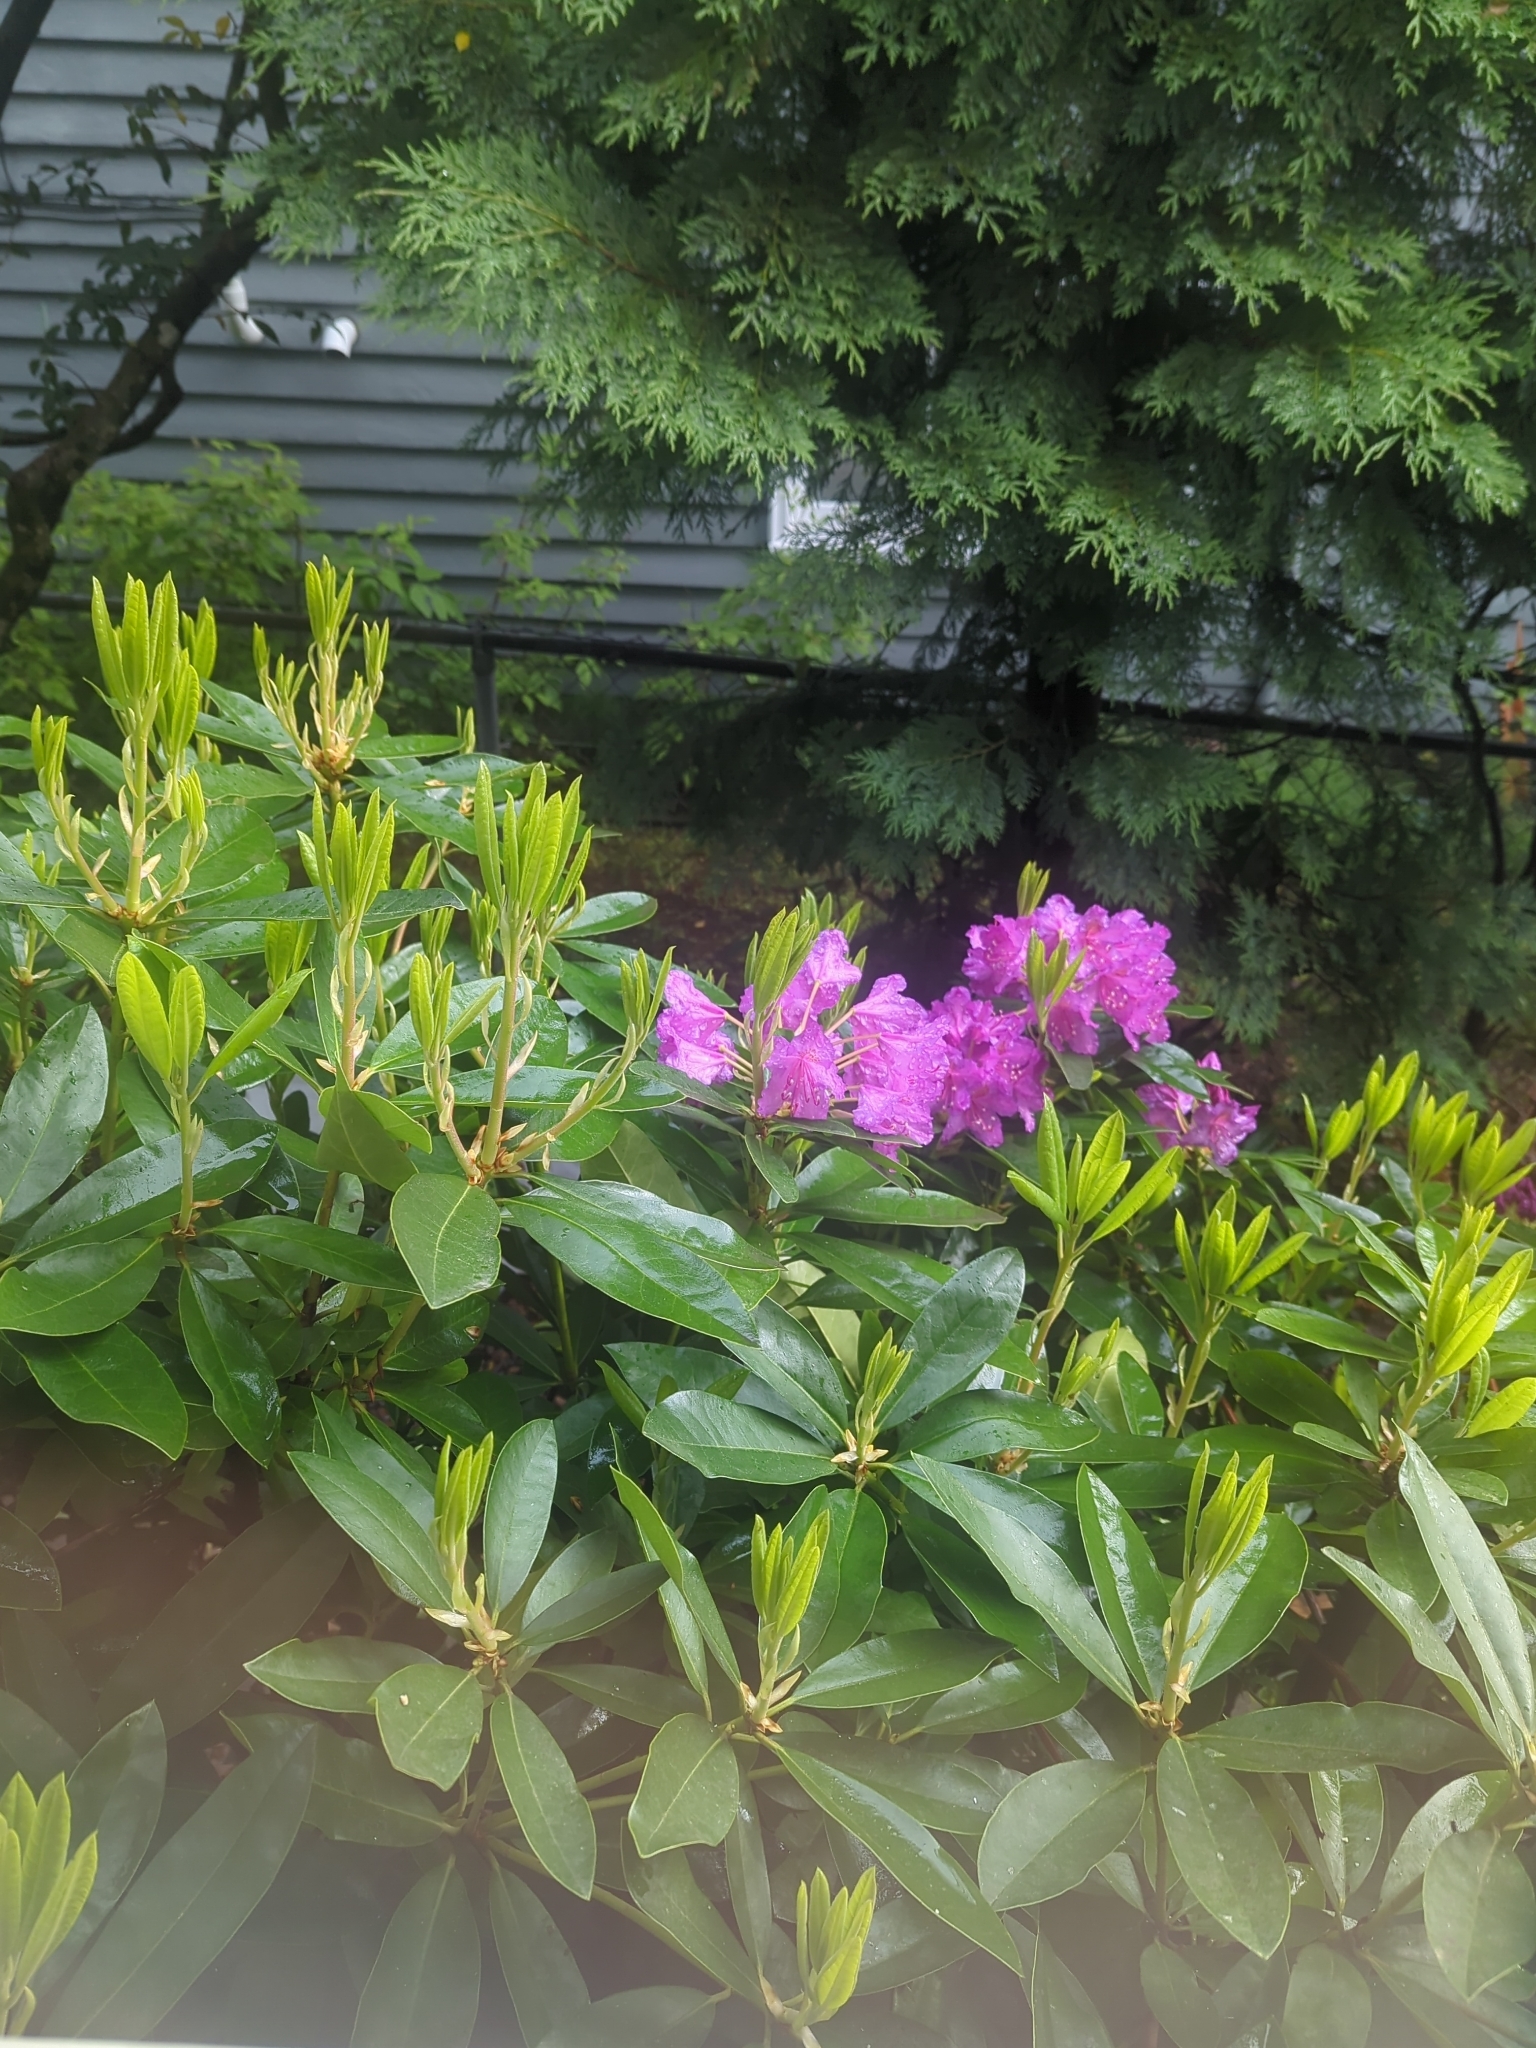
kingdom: Plantae
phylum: Tracheophyta
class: Magnoliopsida
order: Ericales
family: Ericaceae
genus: Rhododendron
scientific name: Rhododendron hybridum
